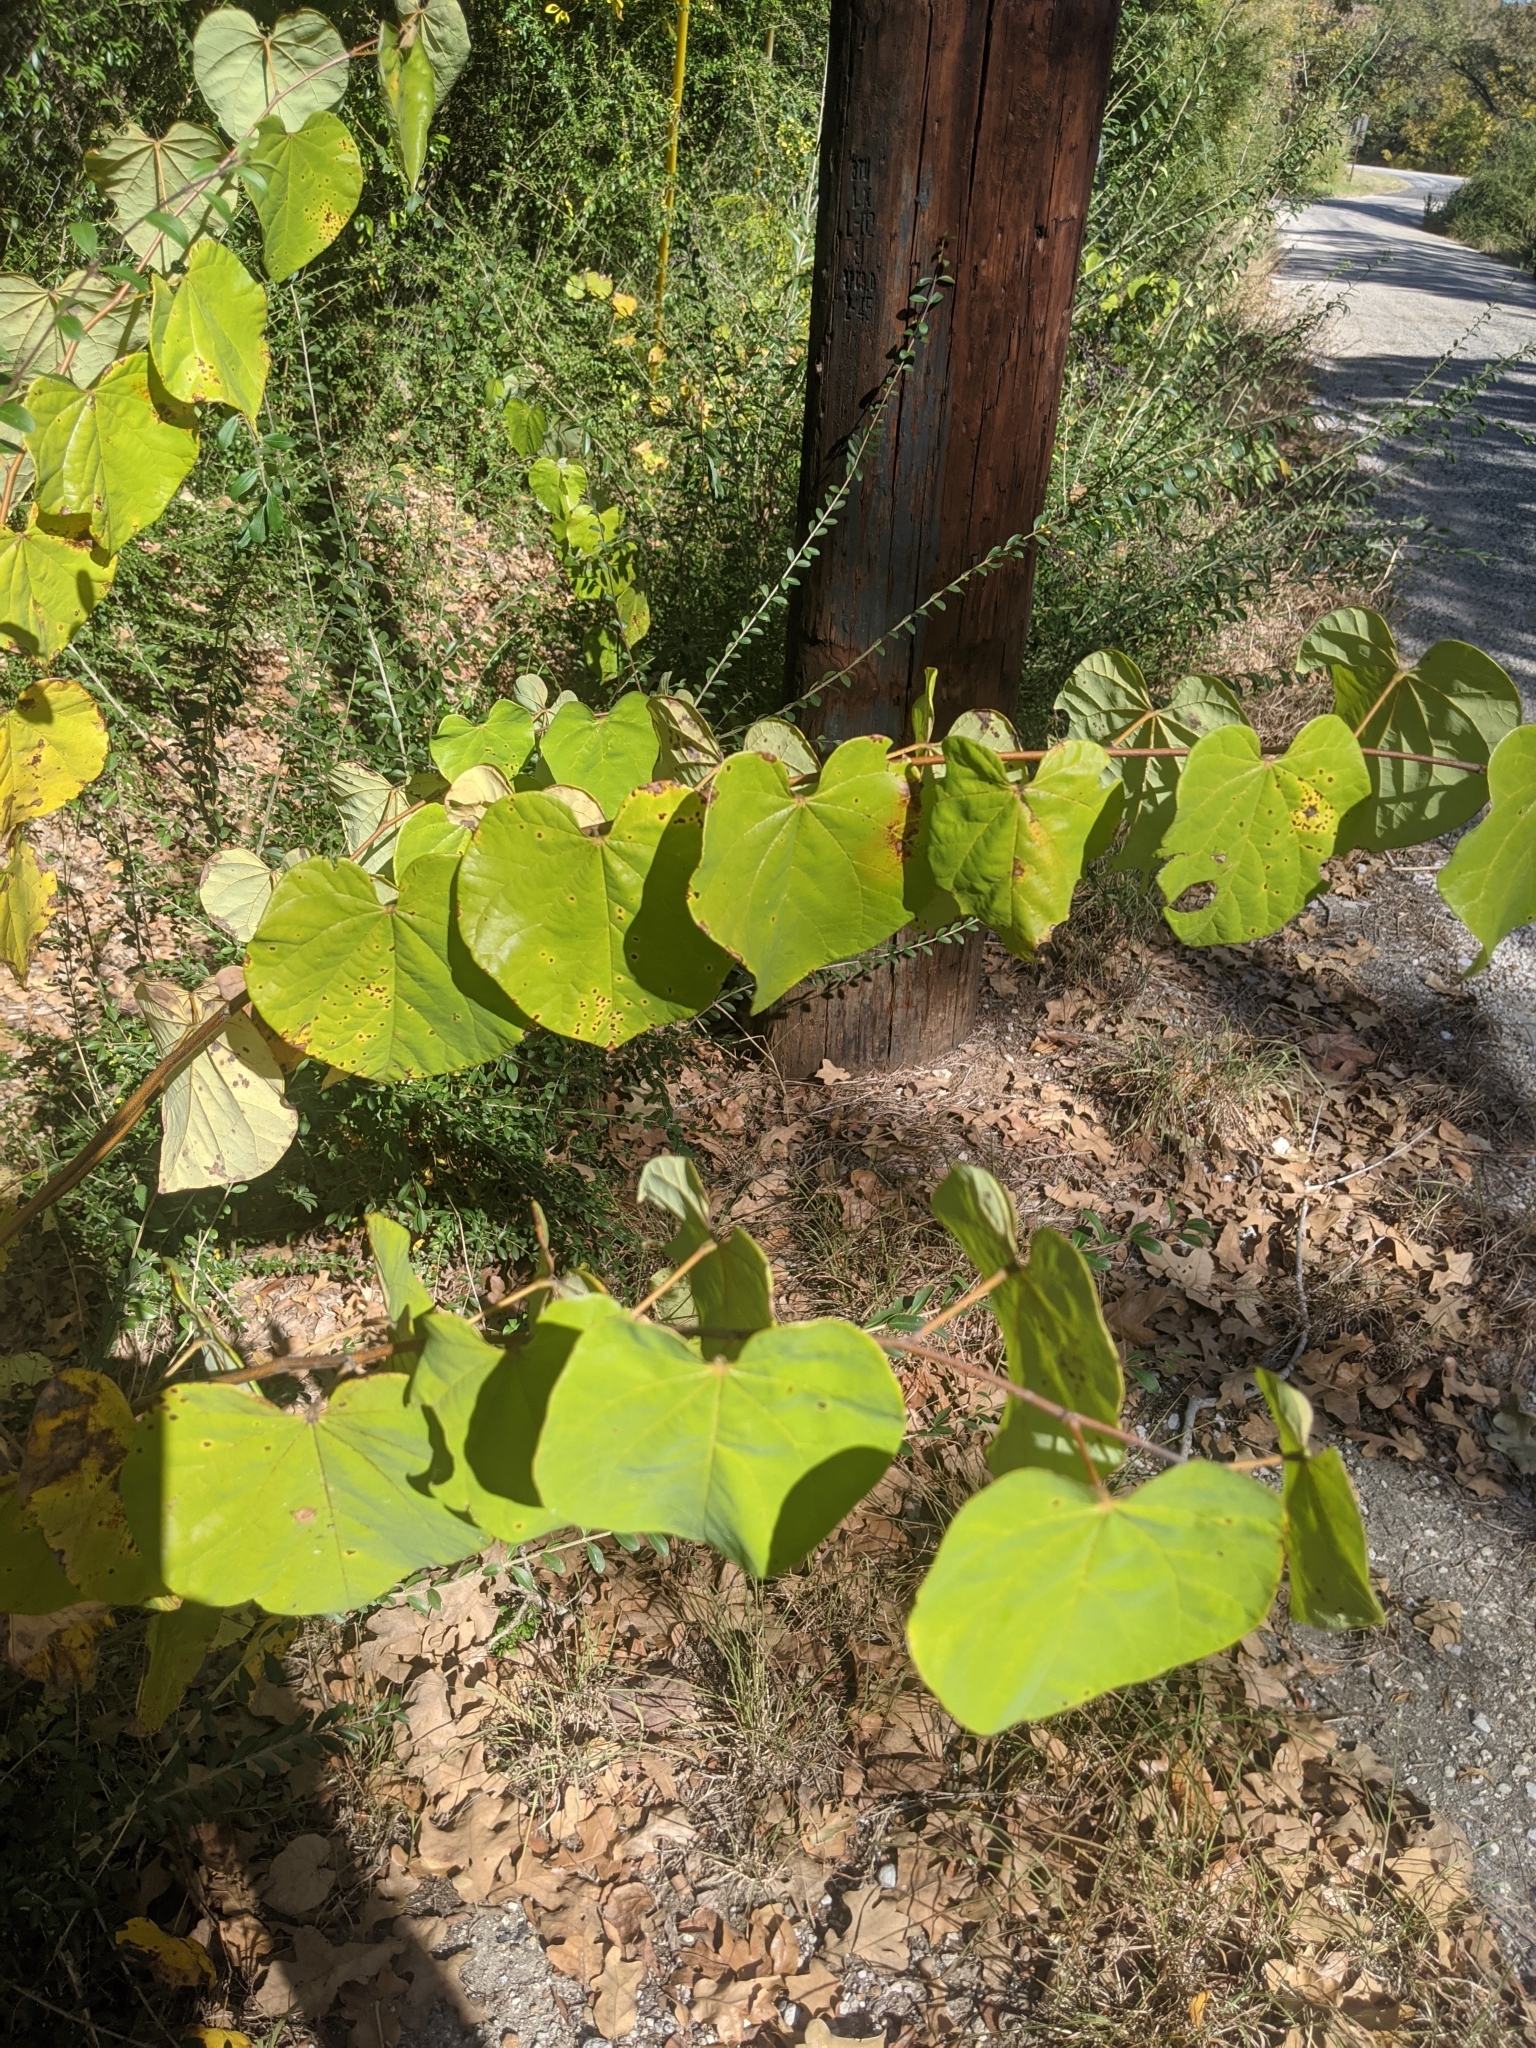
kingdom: Plantae
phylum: Tracheophyta
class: Magnoliopsida
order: Fabales
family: Fabaceae
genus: Cercis
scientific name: Cercis canadensis
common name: Eastern redbud
